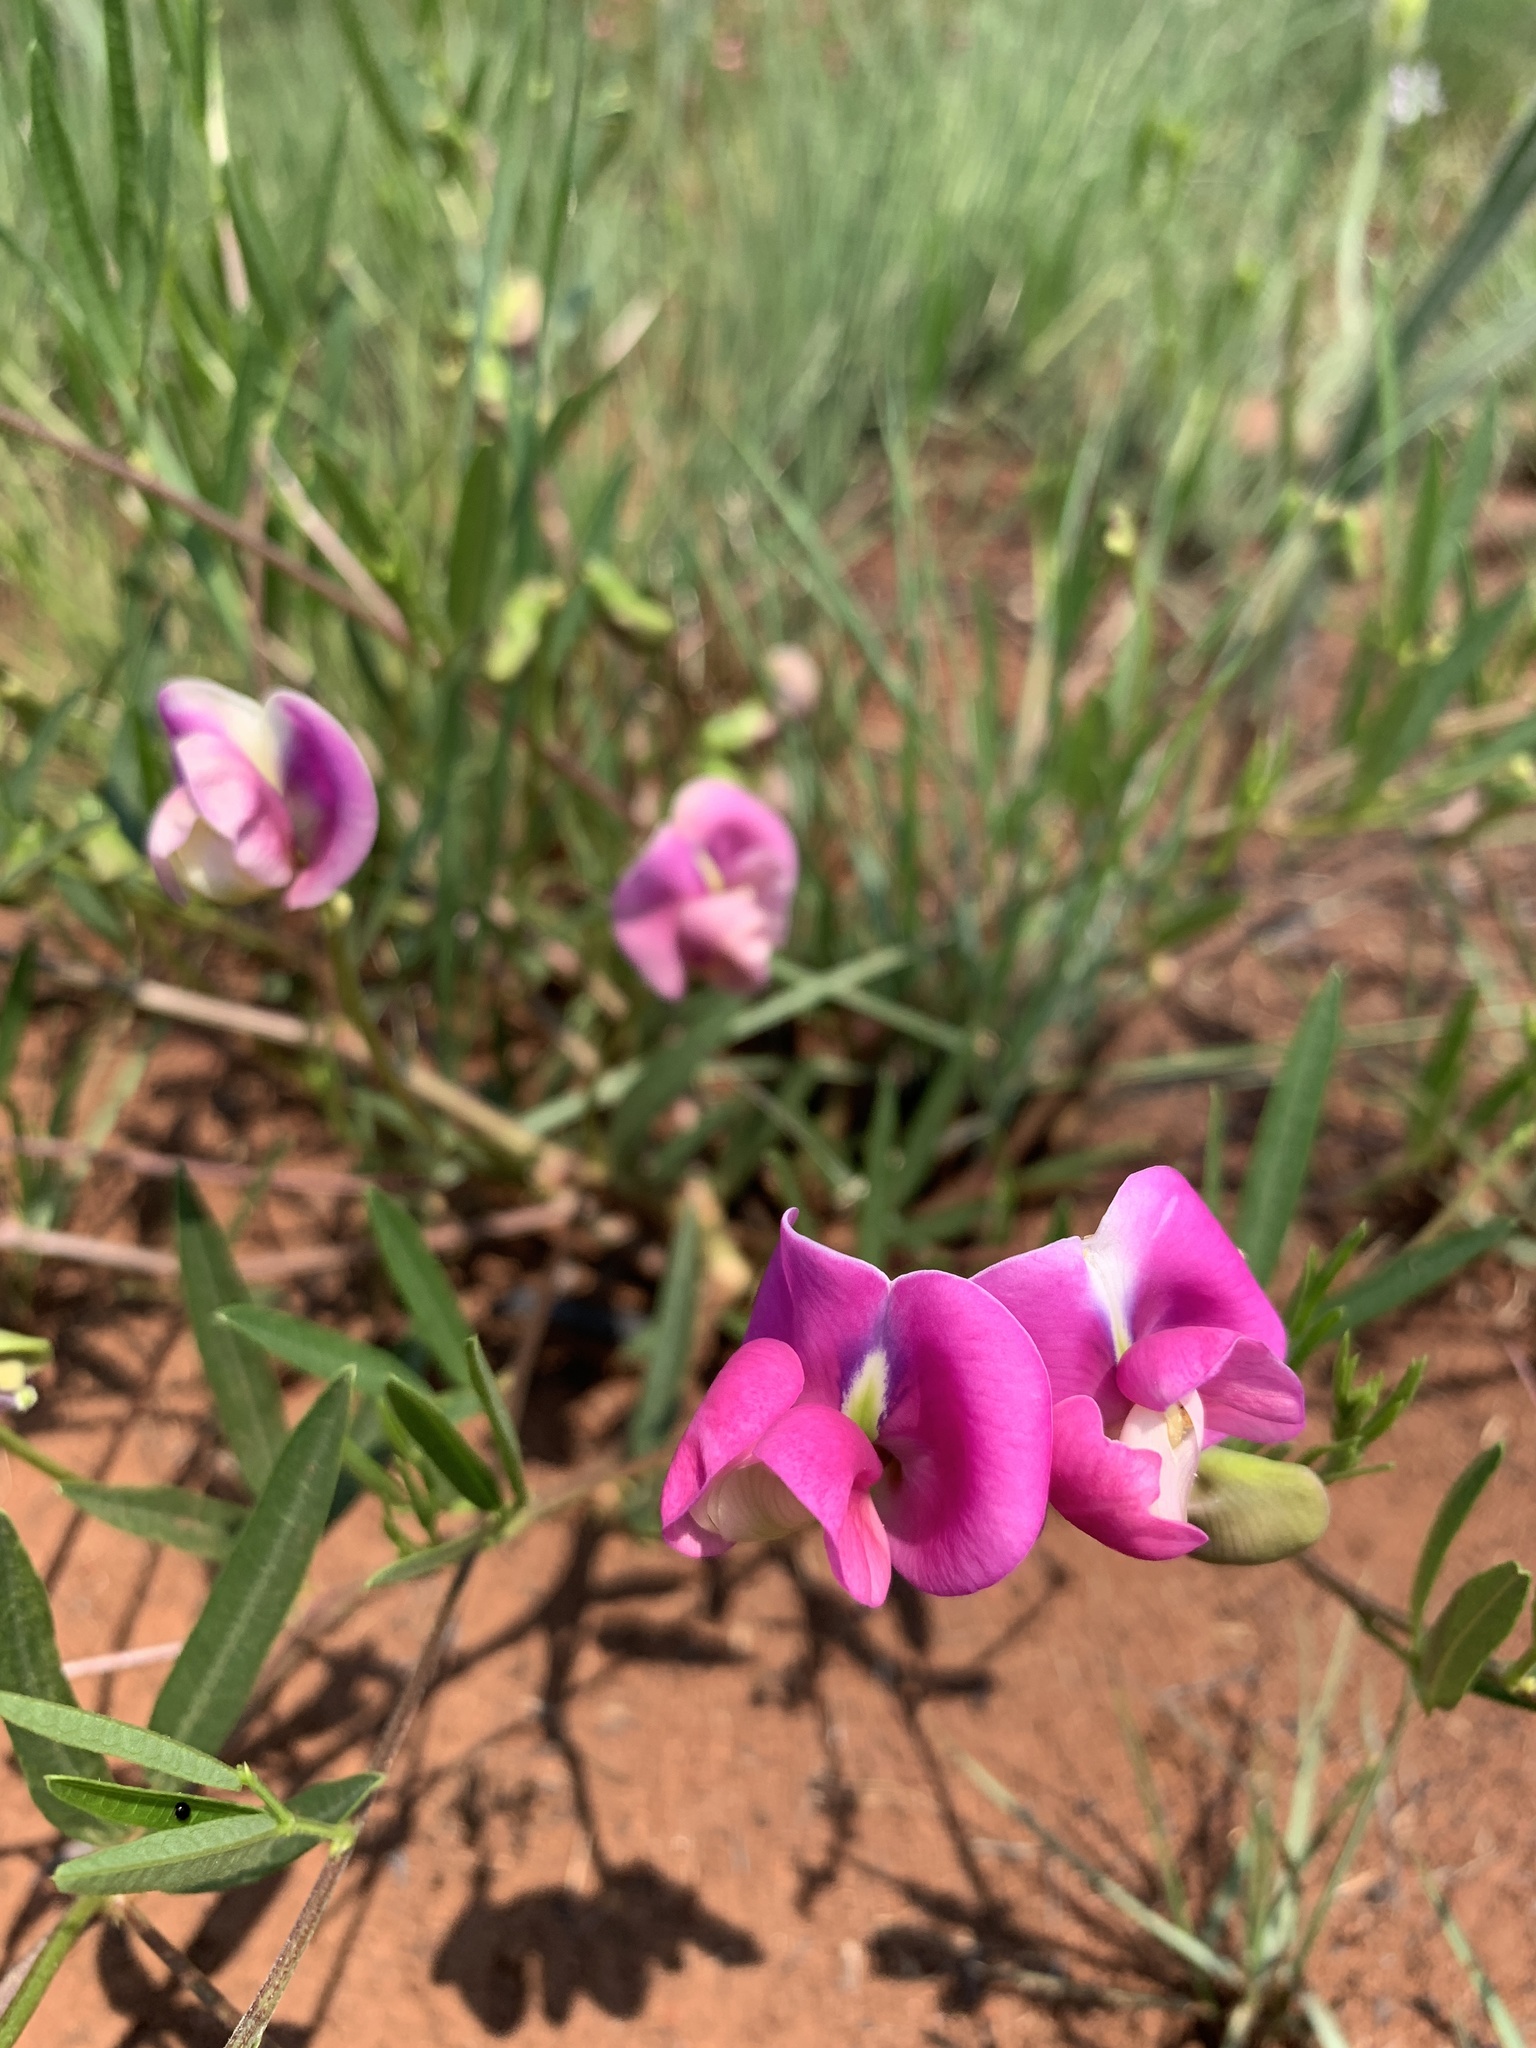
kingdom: Plantae
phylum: Tracheophyta
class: Magnoliopsida
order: Fabales
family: Fabaceae
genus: Sphenostylis
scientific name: Sphenostylis angustifolia
